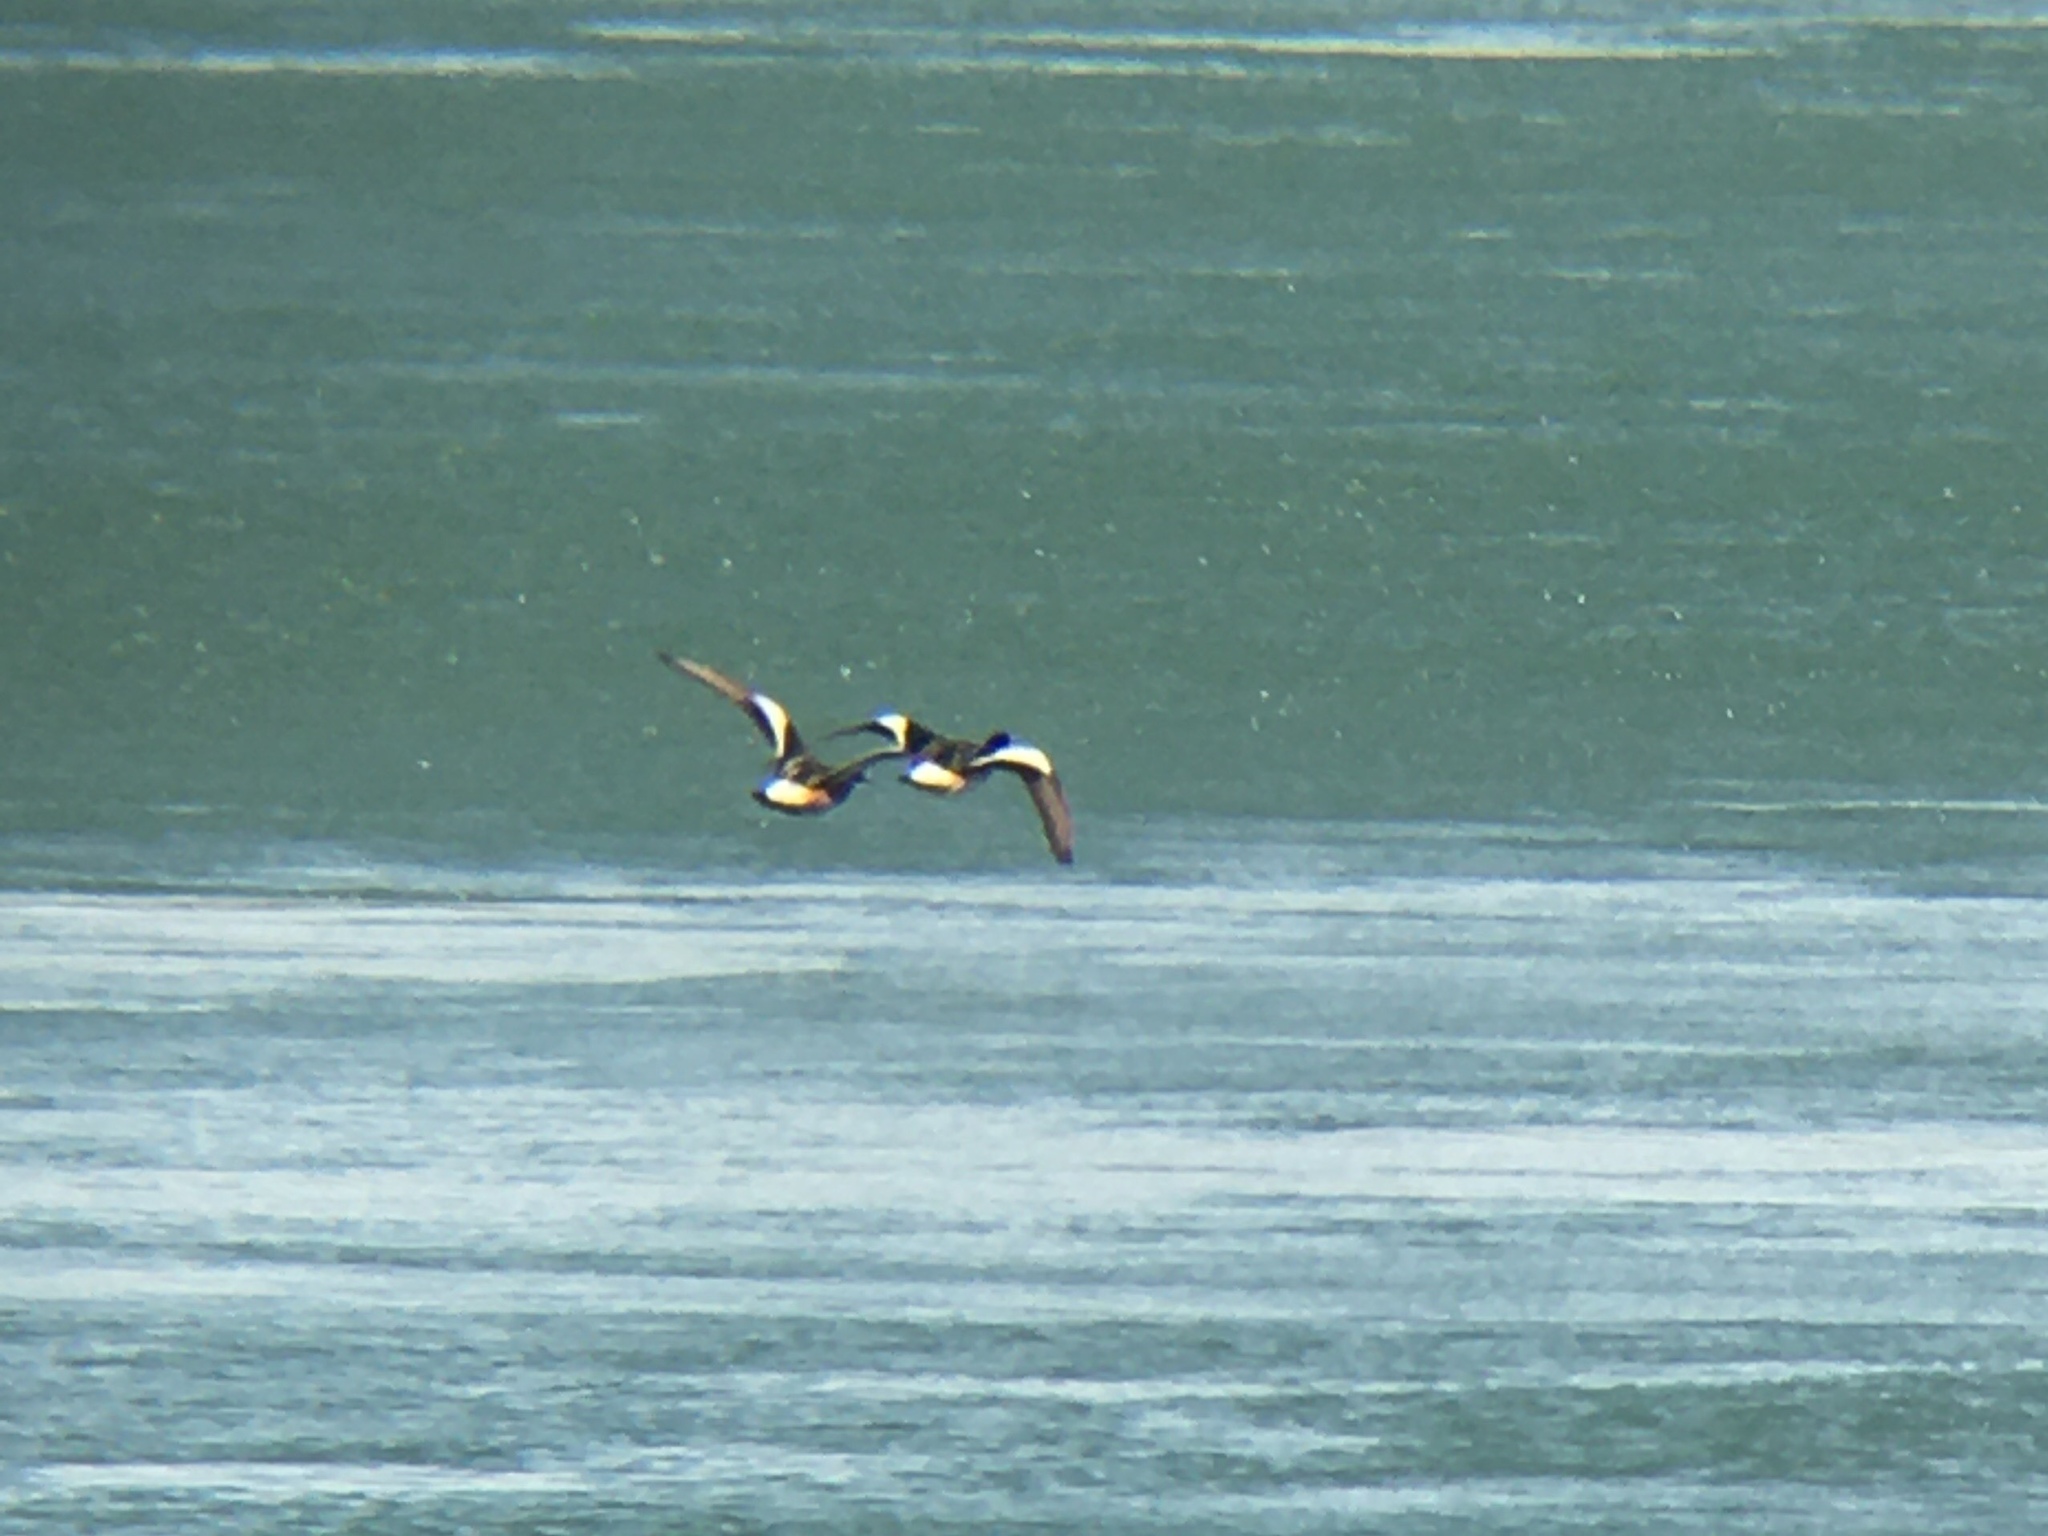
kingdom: Animalia
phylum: Chordata
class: Aves
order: Anseriformes
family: Anatidae
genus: Mareca
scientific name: Mareca sibilatrix
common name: Chiloe wigeon
